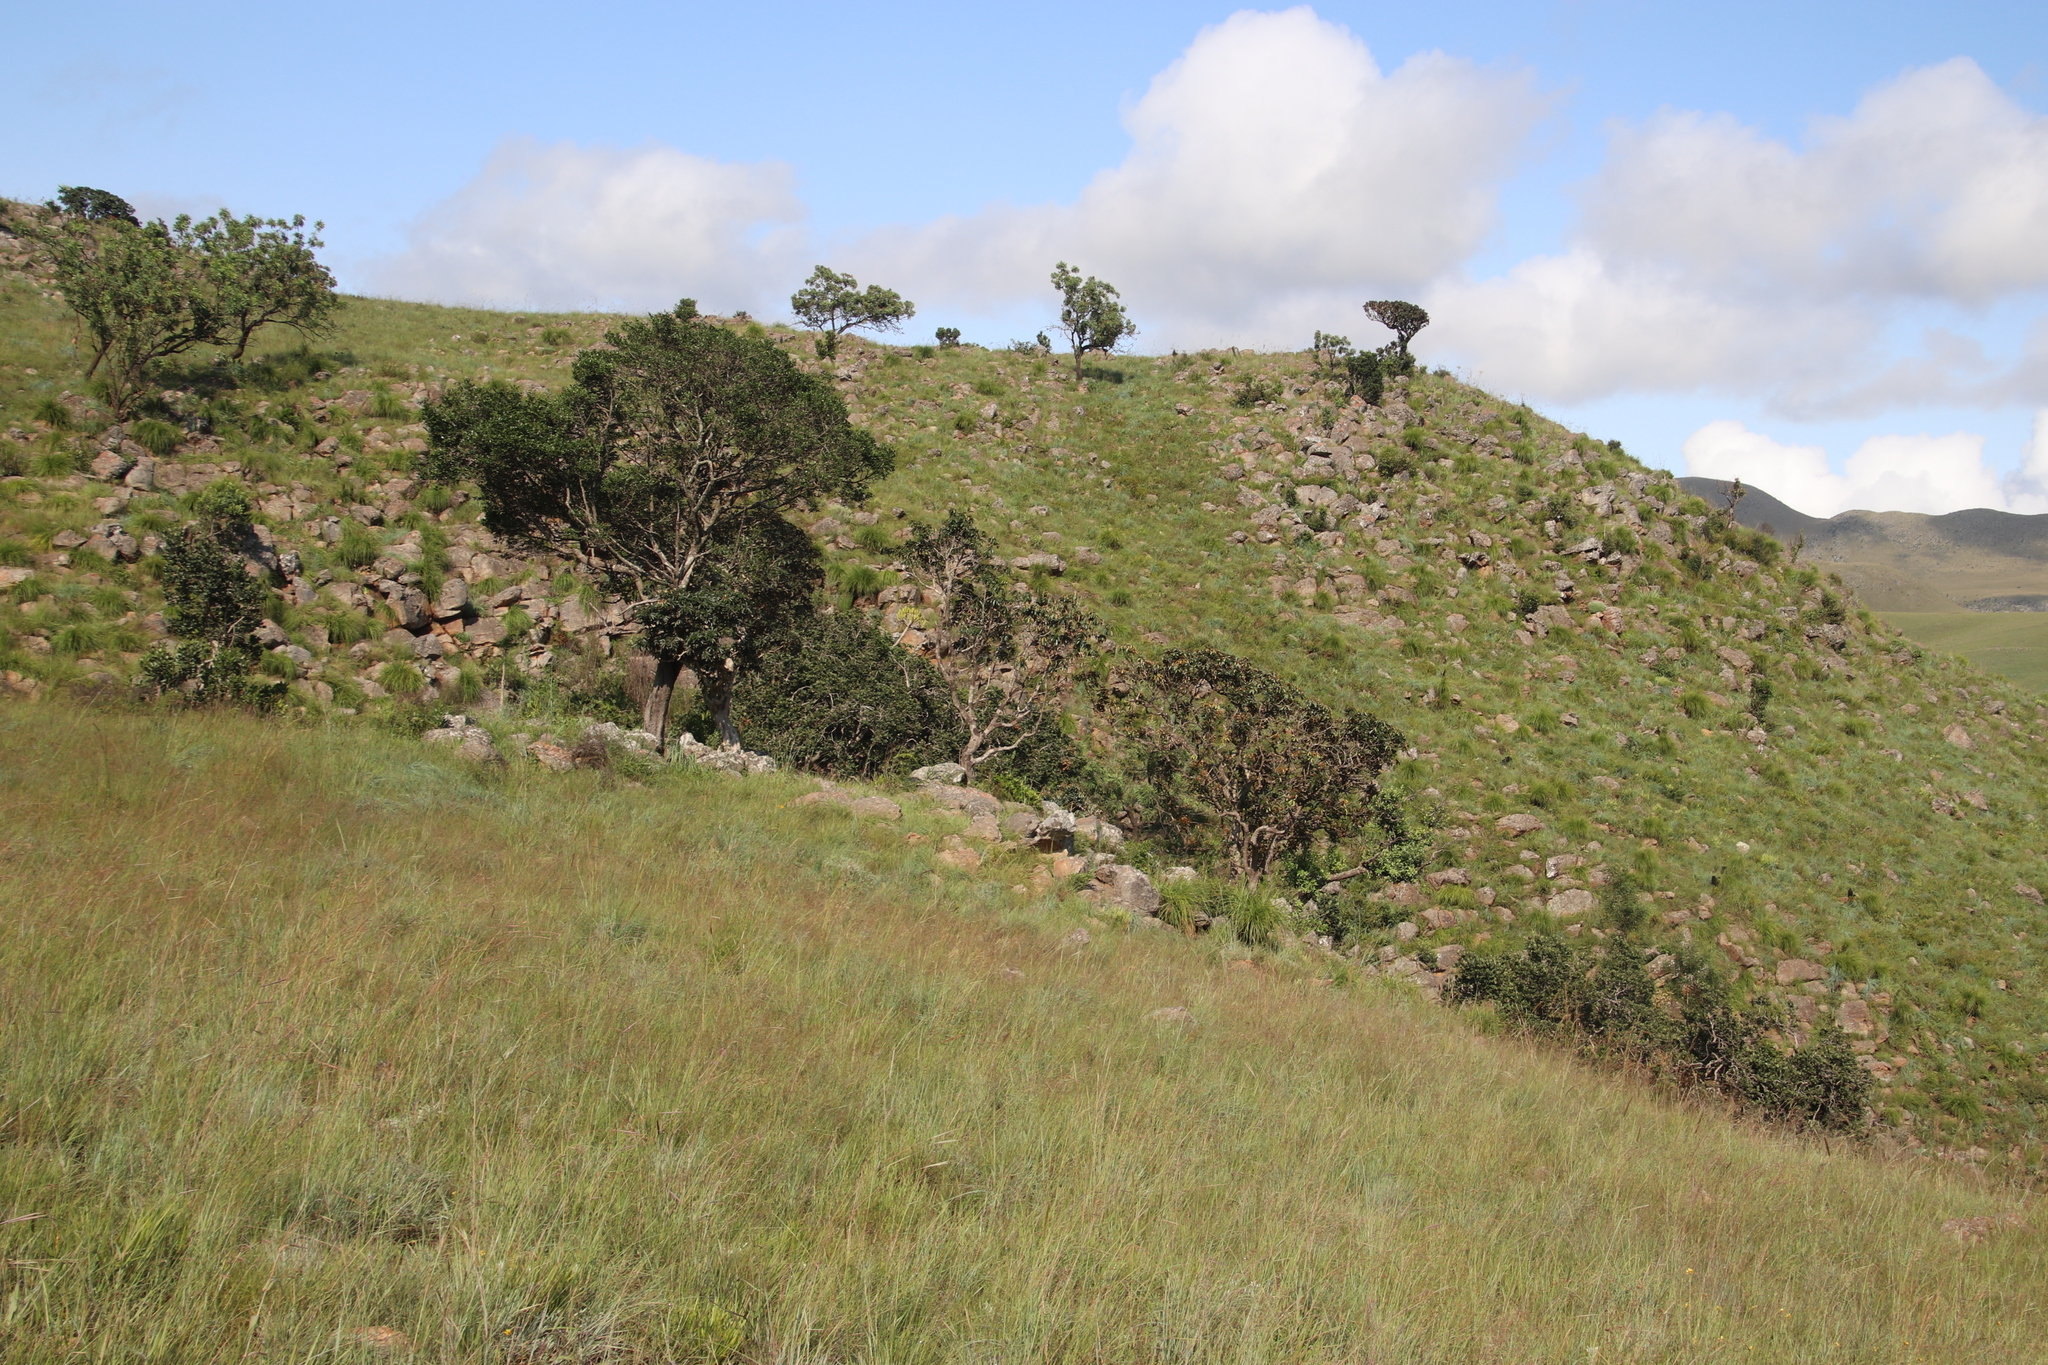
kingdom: Plantae
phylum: Tracheophyta
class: Magnoliopsida
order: Ericales
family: Sapotaceae
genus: Englerophytum
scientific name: Englerophytum magalismontanum
